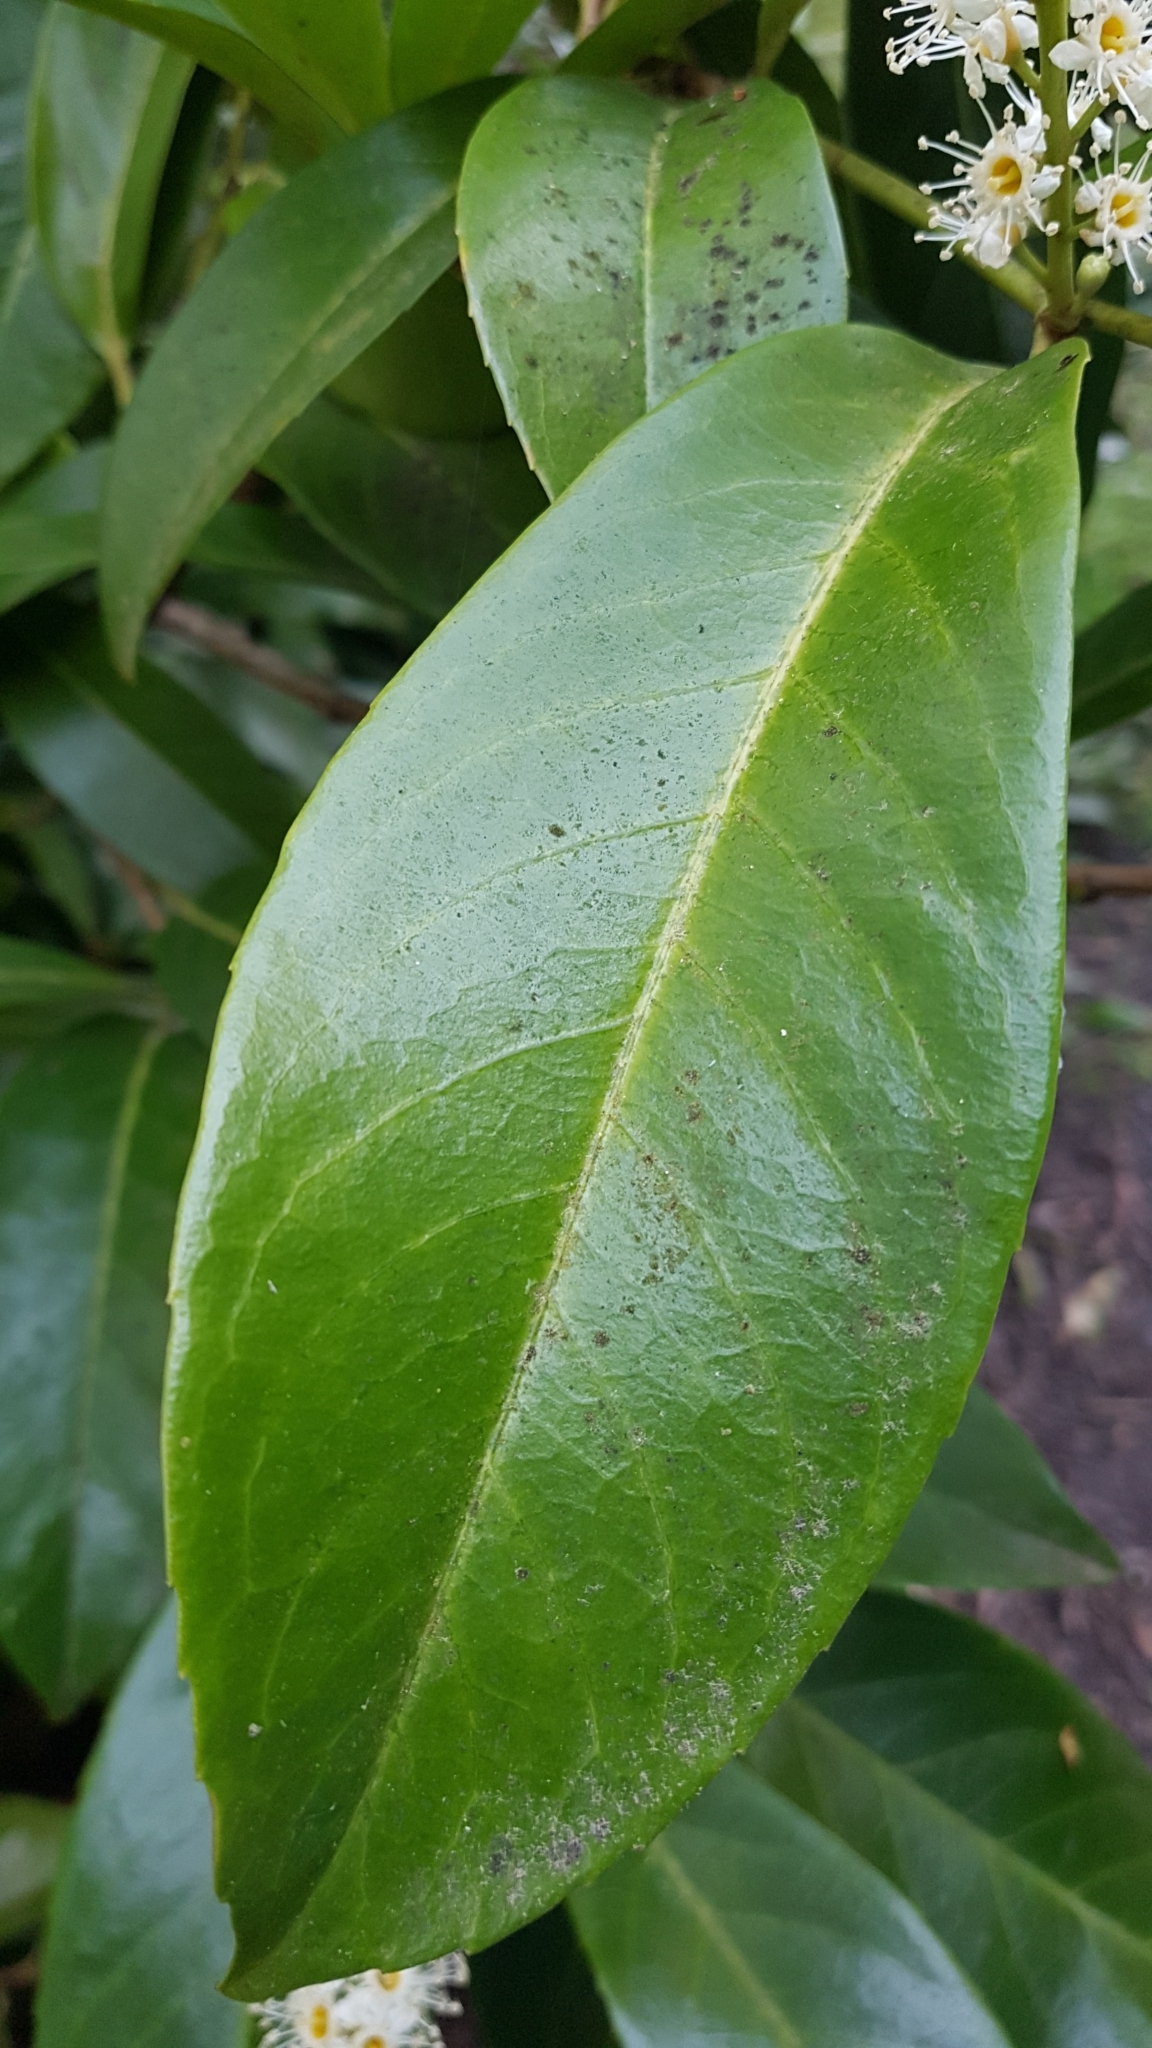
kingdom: Plantae
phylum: Tracheophyta
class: Magnoliopsida
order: Rosales
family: Rosaceae
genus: Prunus
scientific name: Prunus laurocerasus
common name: Cherry laurel
